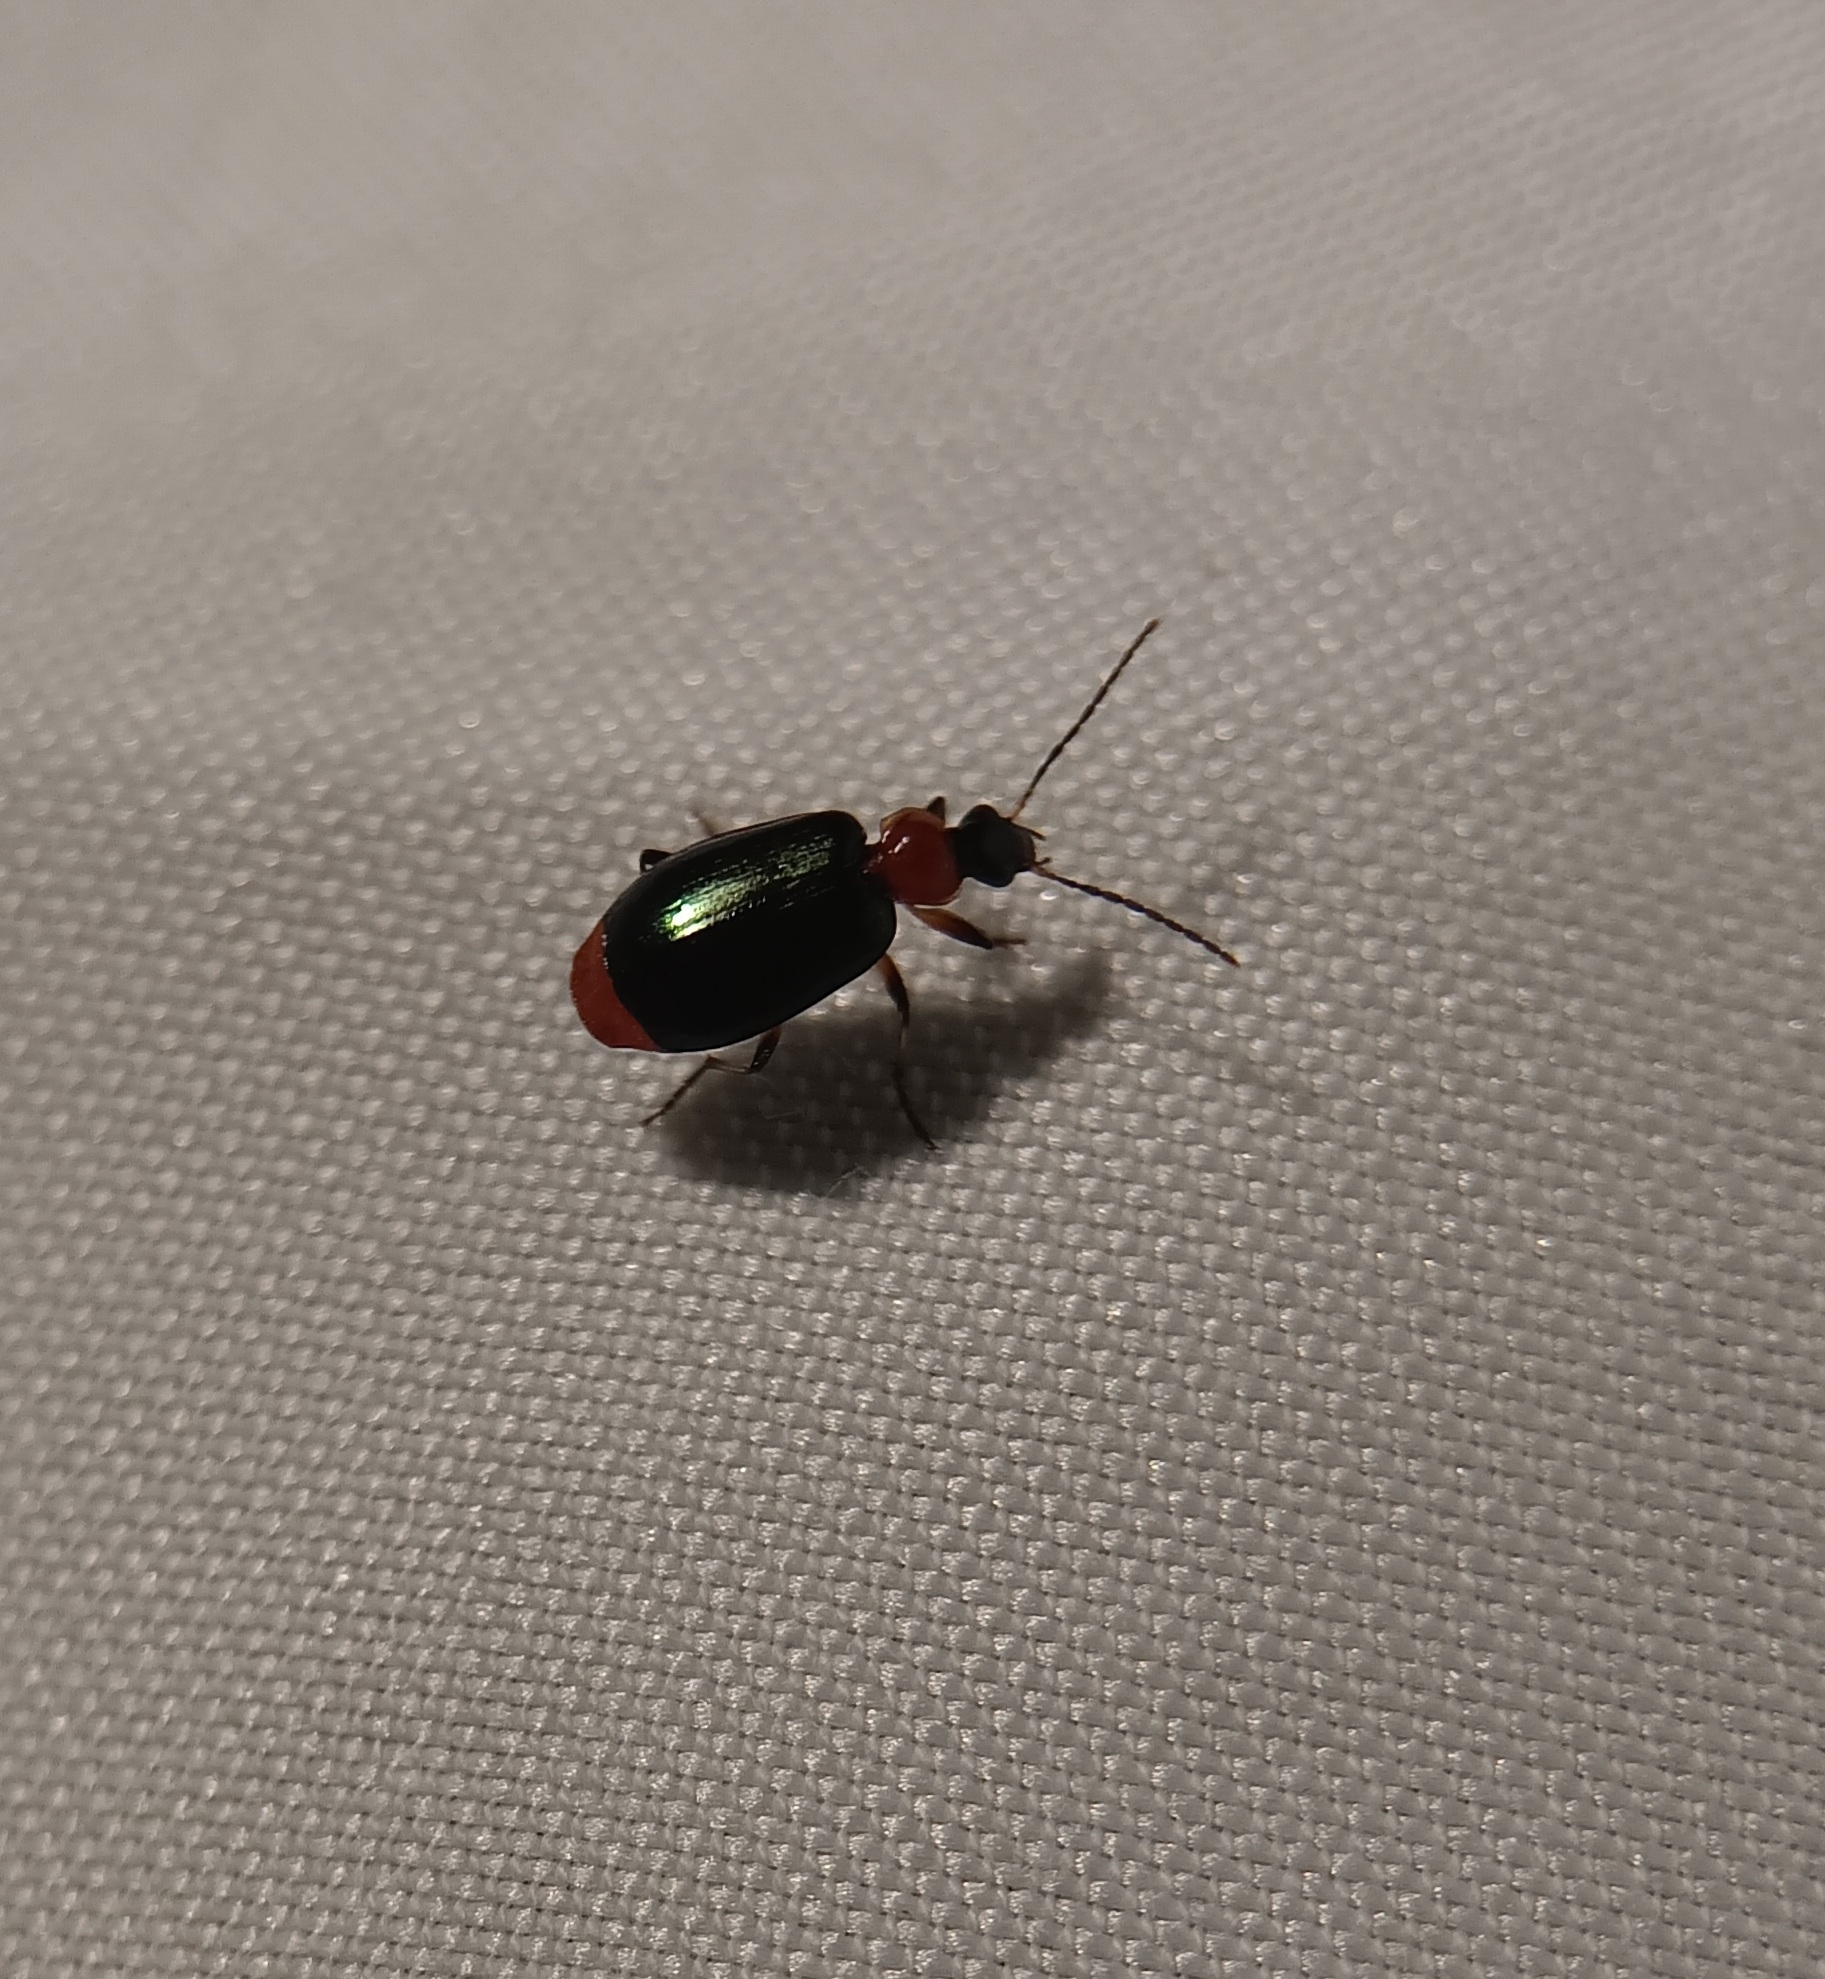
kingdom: Animalia
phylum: Arthropoda
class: Insecta
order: Coleoptera
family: Carabidae
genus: Lebia
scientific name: Lebia viridipennis
